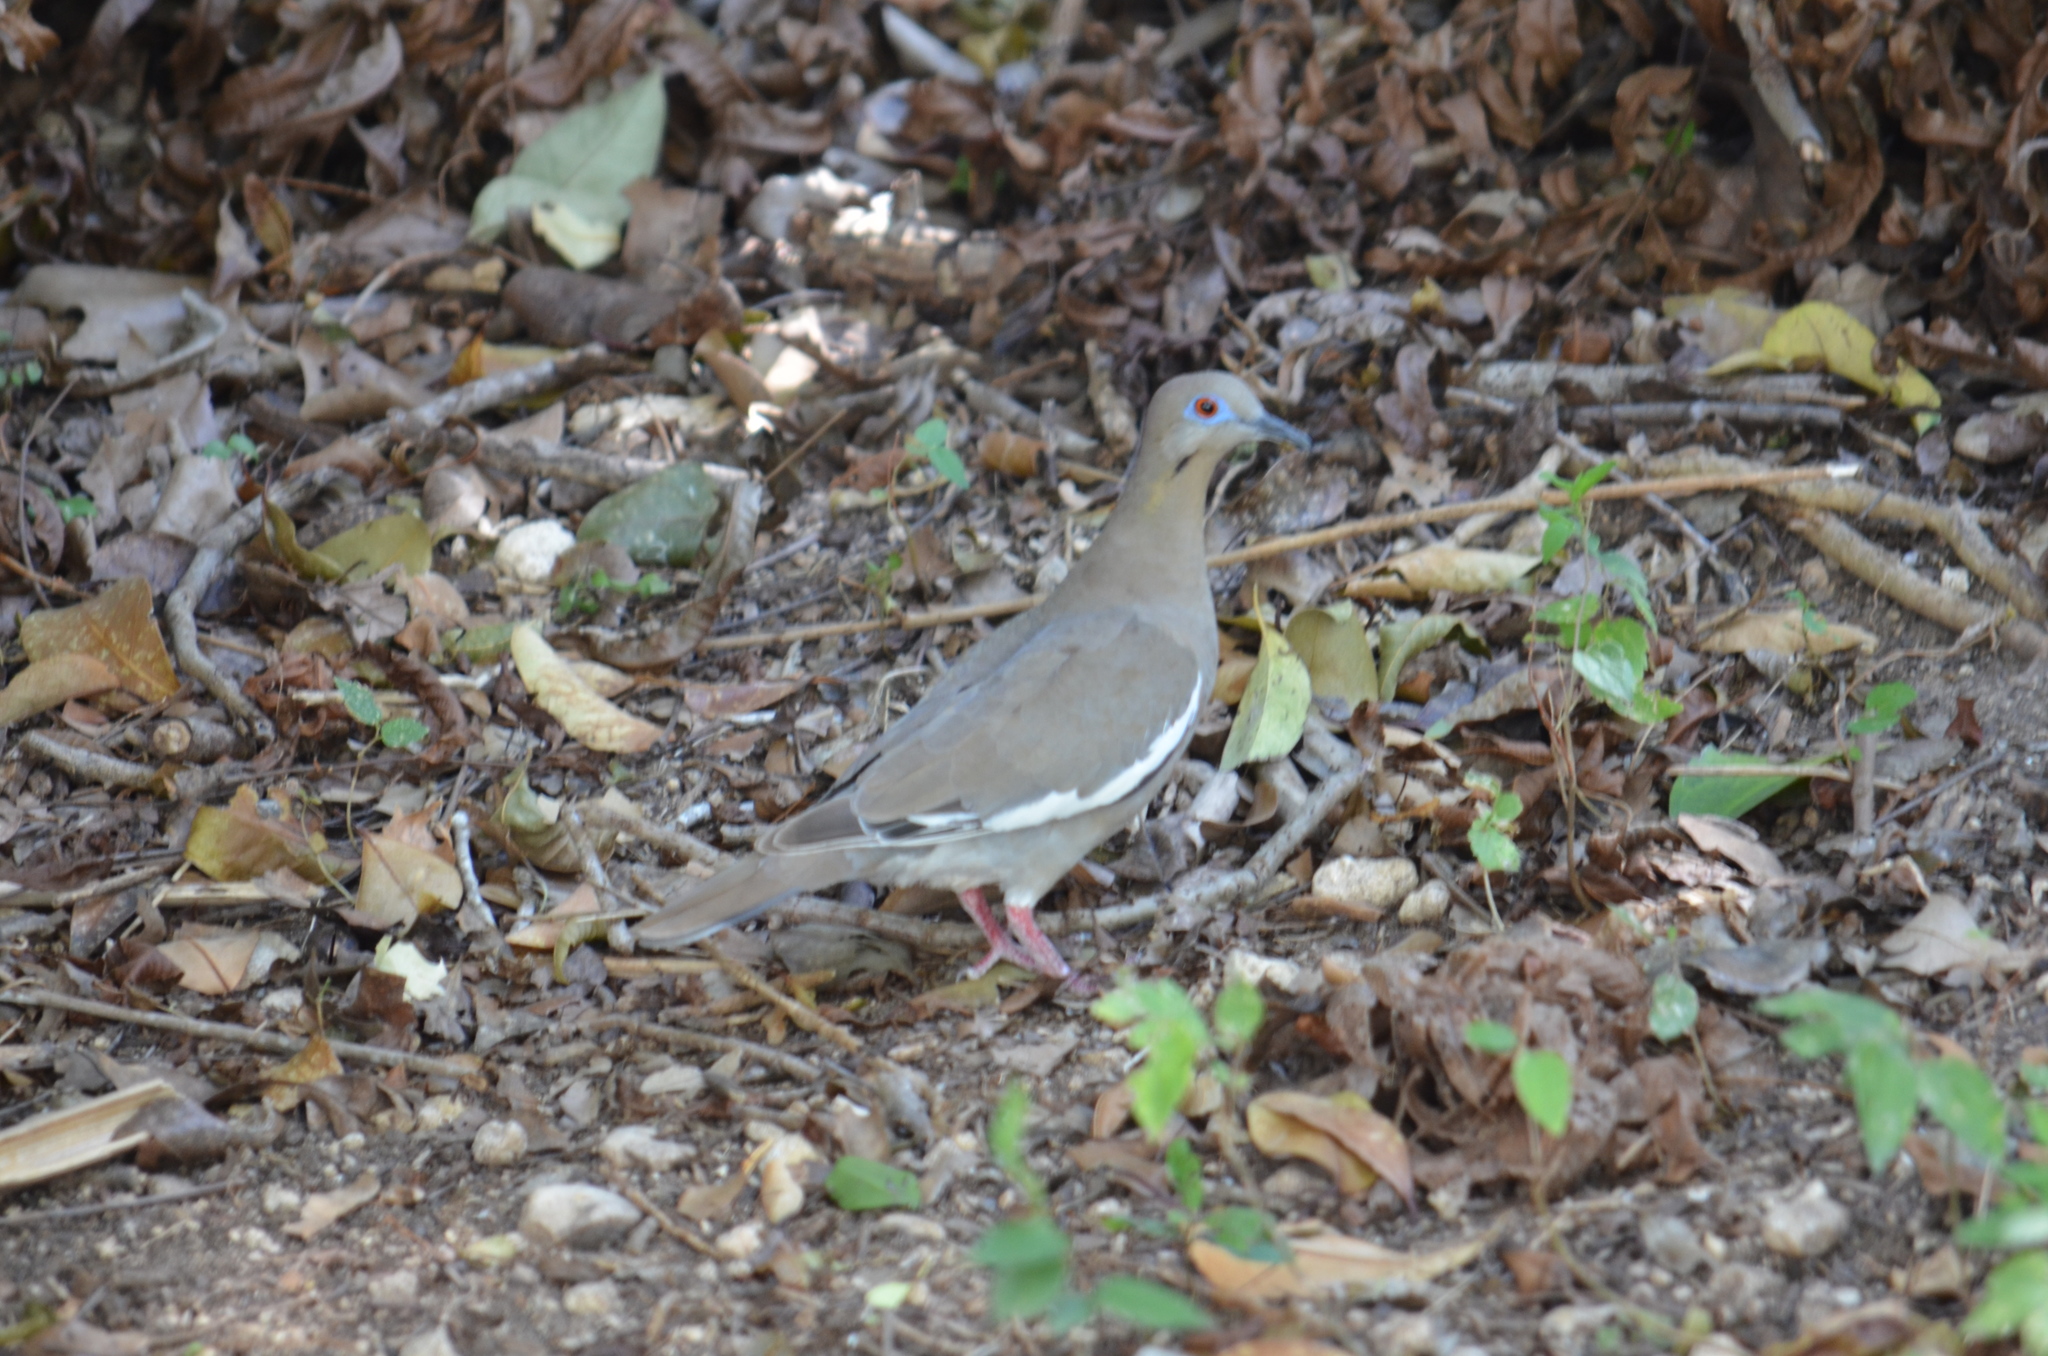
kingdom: Animalia
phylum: Chordata
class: Aves
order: Columbiformes
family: Columbidae
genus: Zenaida
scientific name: Zenaida asiatica
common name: White-winged dove
